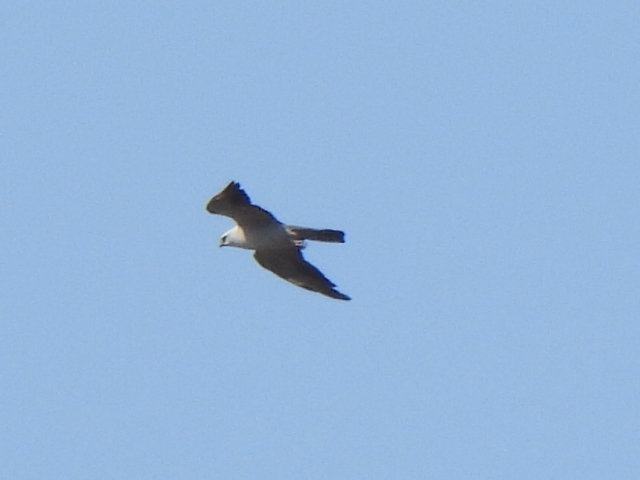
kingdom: Animalia
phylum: Chordata
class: Aves
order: Accipitriformes
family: Accipitridae
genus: Ictinia
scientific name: Ictinia mississippiensis
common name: Mississippi kite
